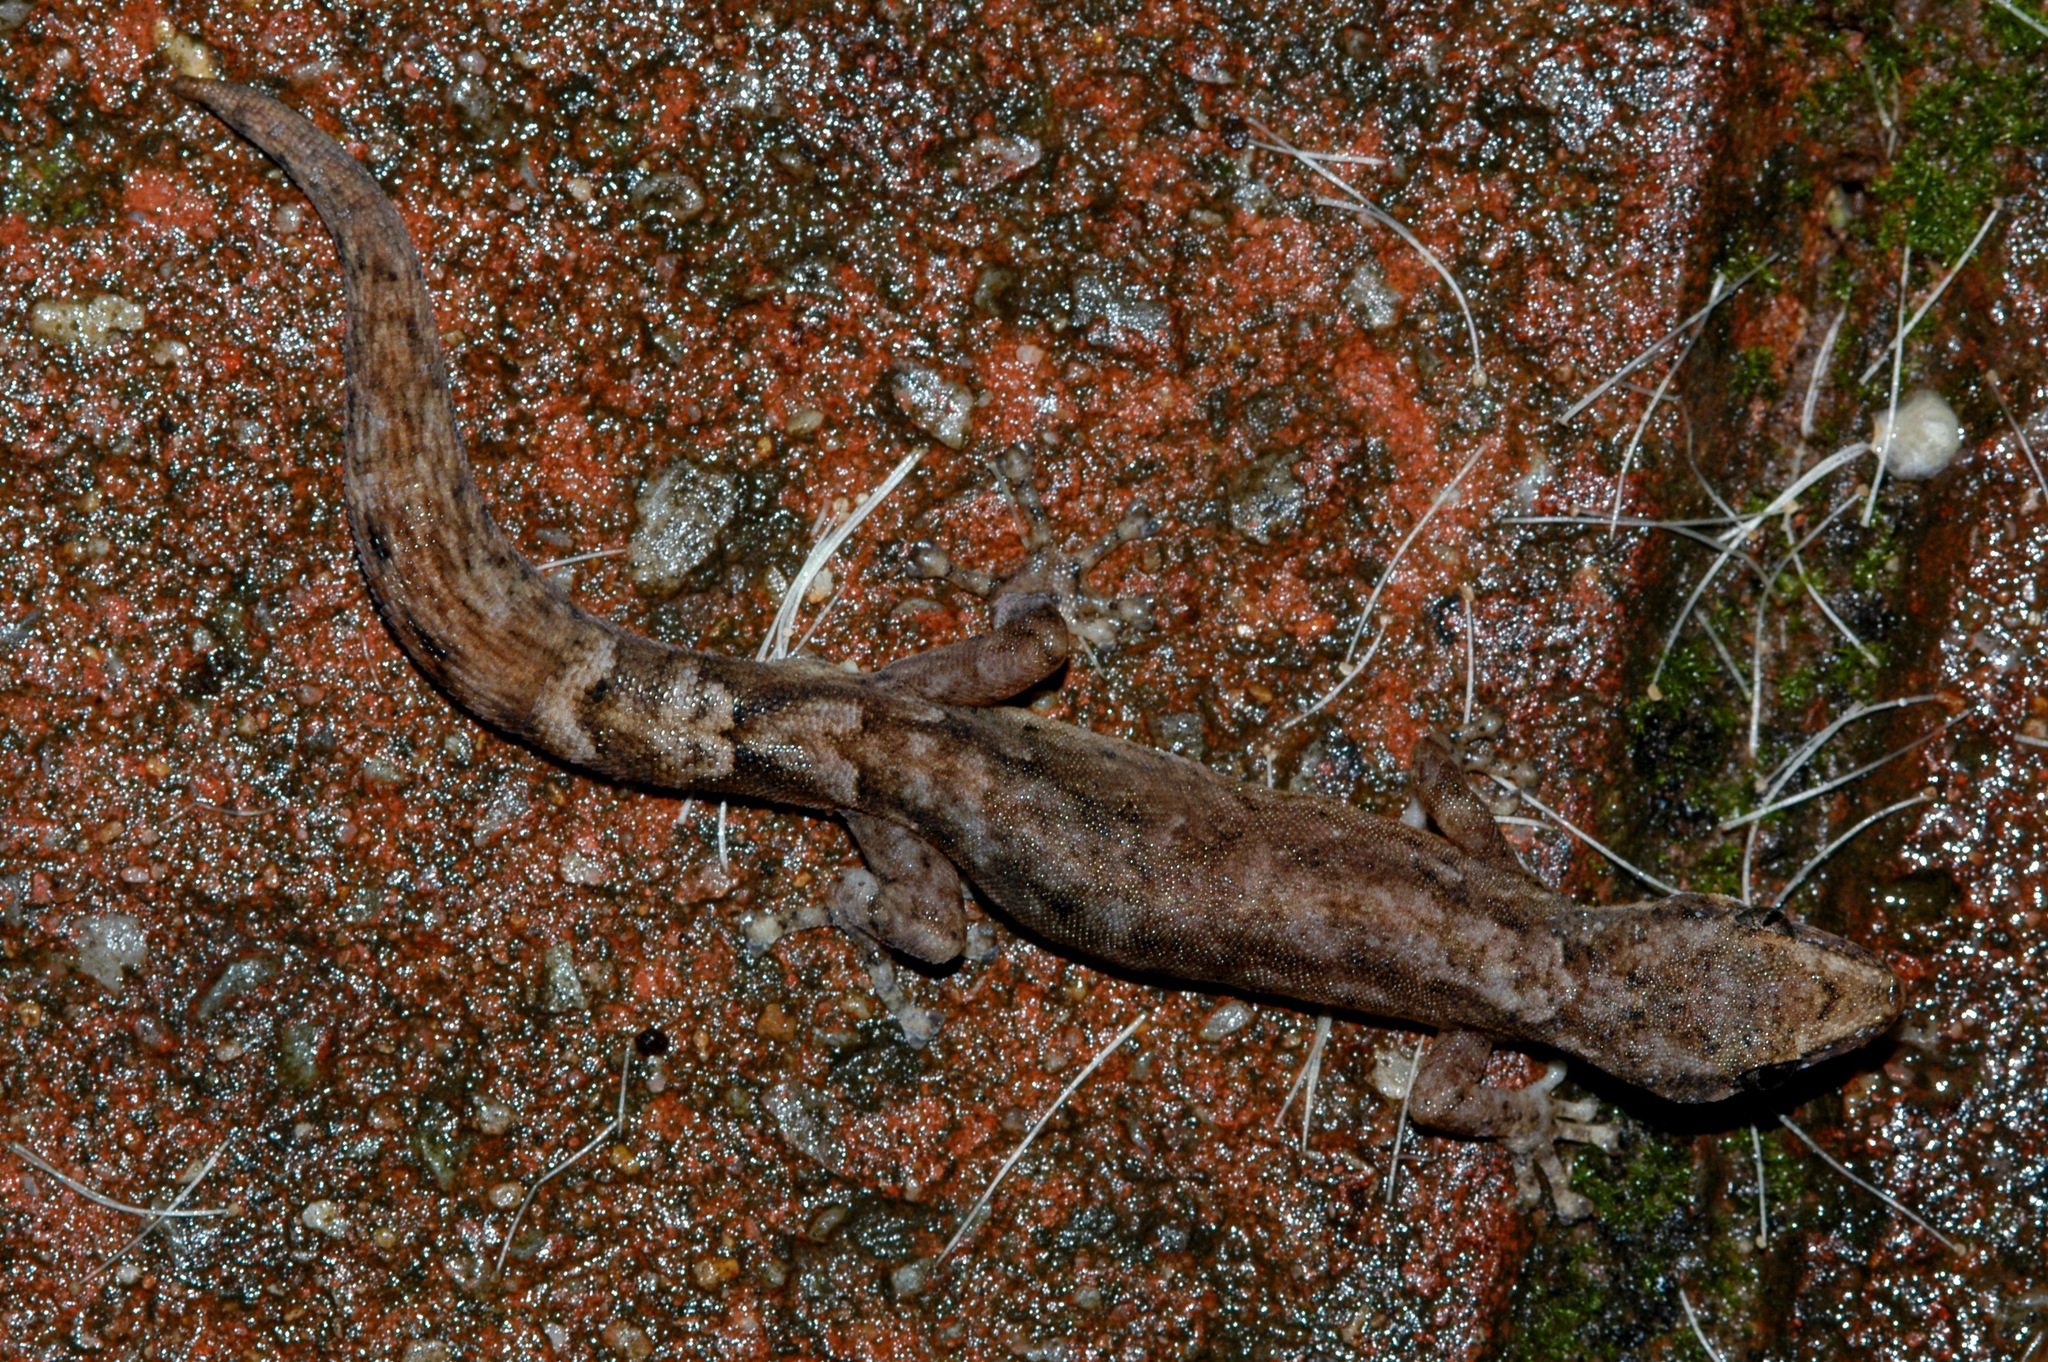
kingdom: Animalia
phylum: Chordata
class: Squamata
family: Gekkonidae
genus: Afrogecko
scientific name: Afrogecko porphyreus
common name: Marbled leaf-toed gecko
